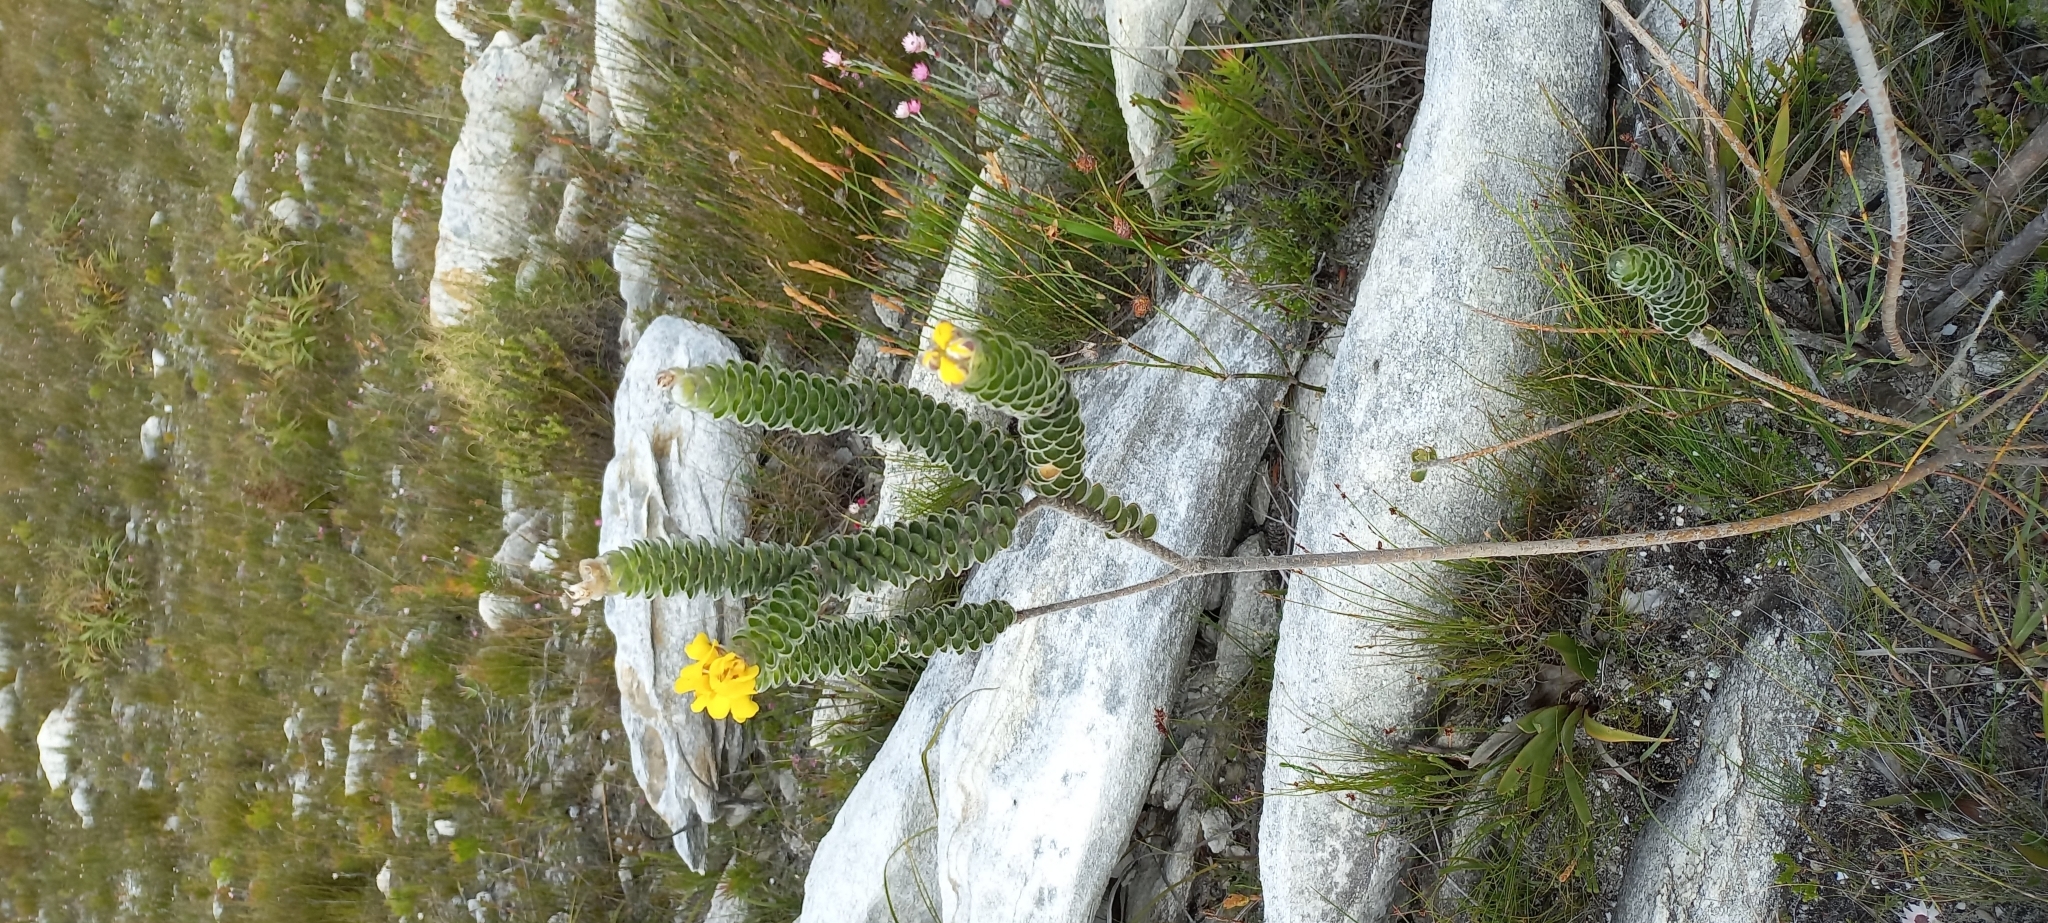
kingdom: Plantae
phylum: Tracheophyta
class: Magnoliopsida
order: Fabales
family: Fabaceae
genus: Liparia
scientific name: Liparia vestita
